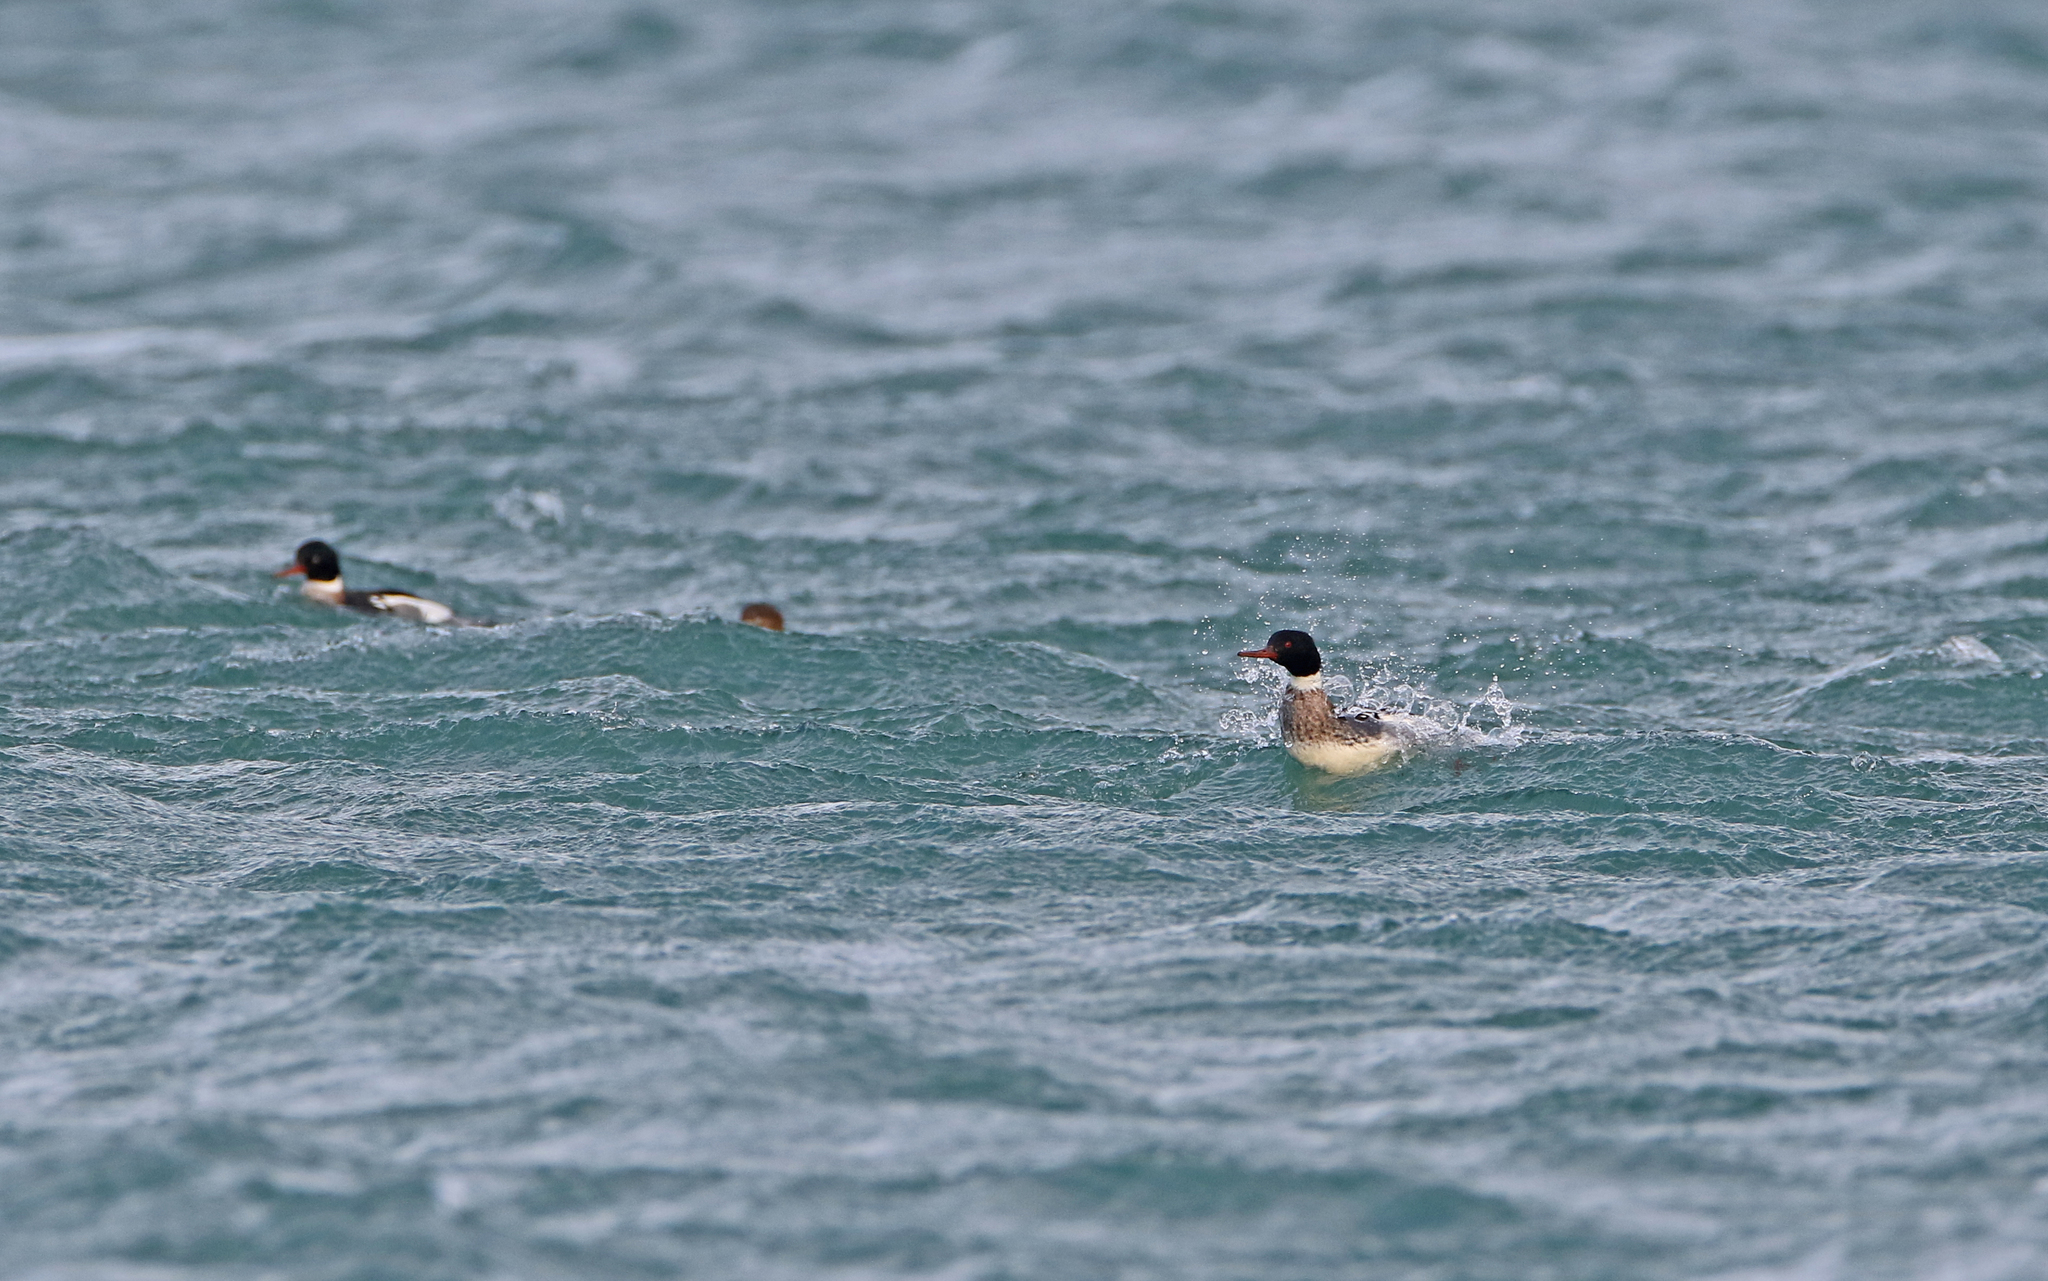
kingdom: Animalia
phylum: Chordata
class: Aves
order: Anseriformes
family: Anatidae
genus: Mergus
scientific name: Mergus serrator
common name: Red-breasted merganser
